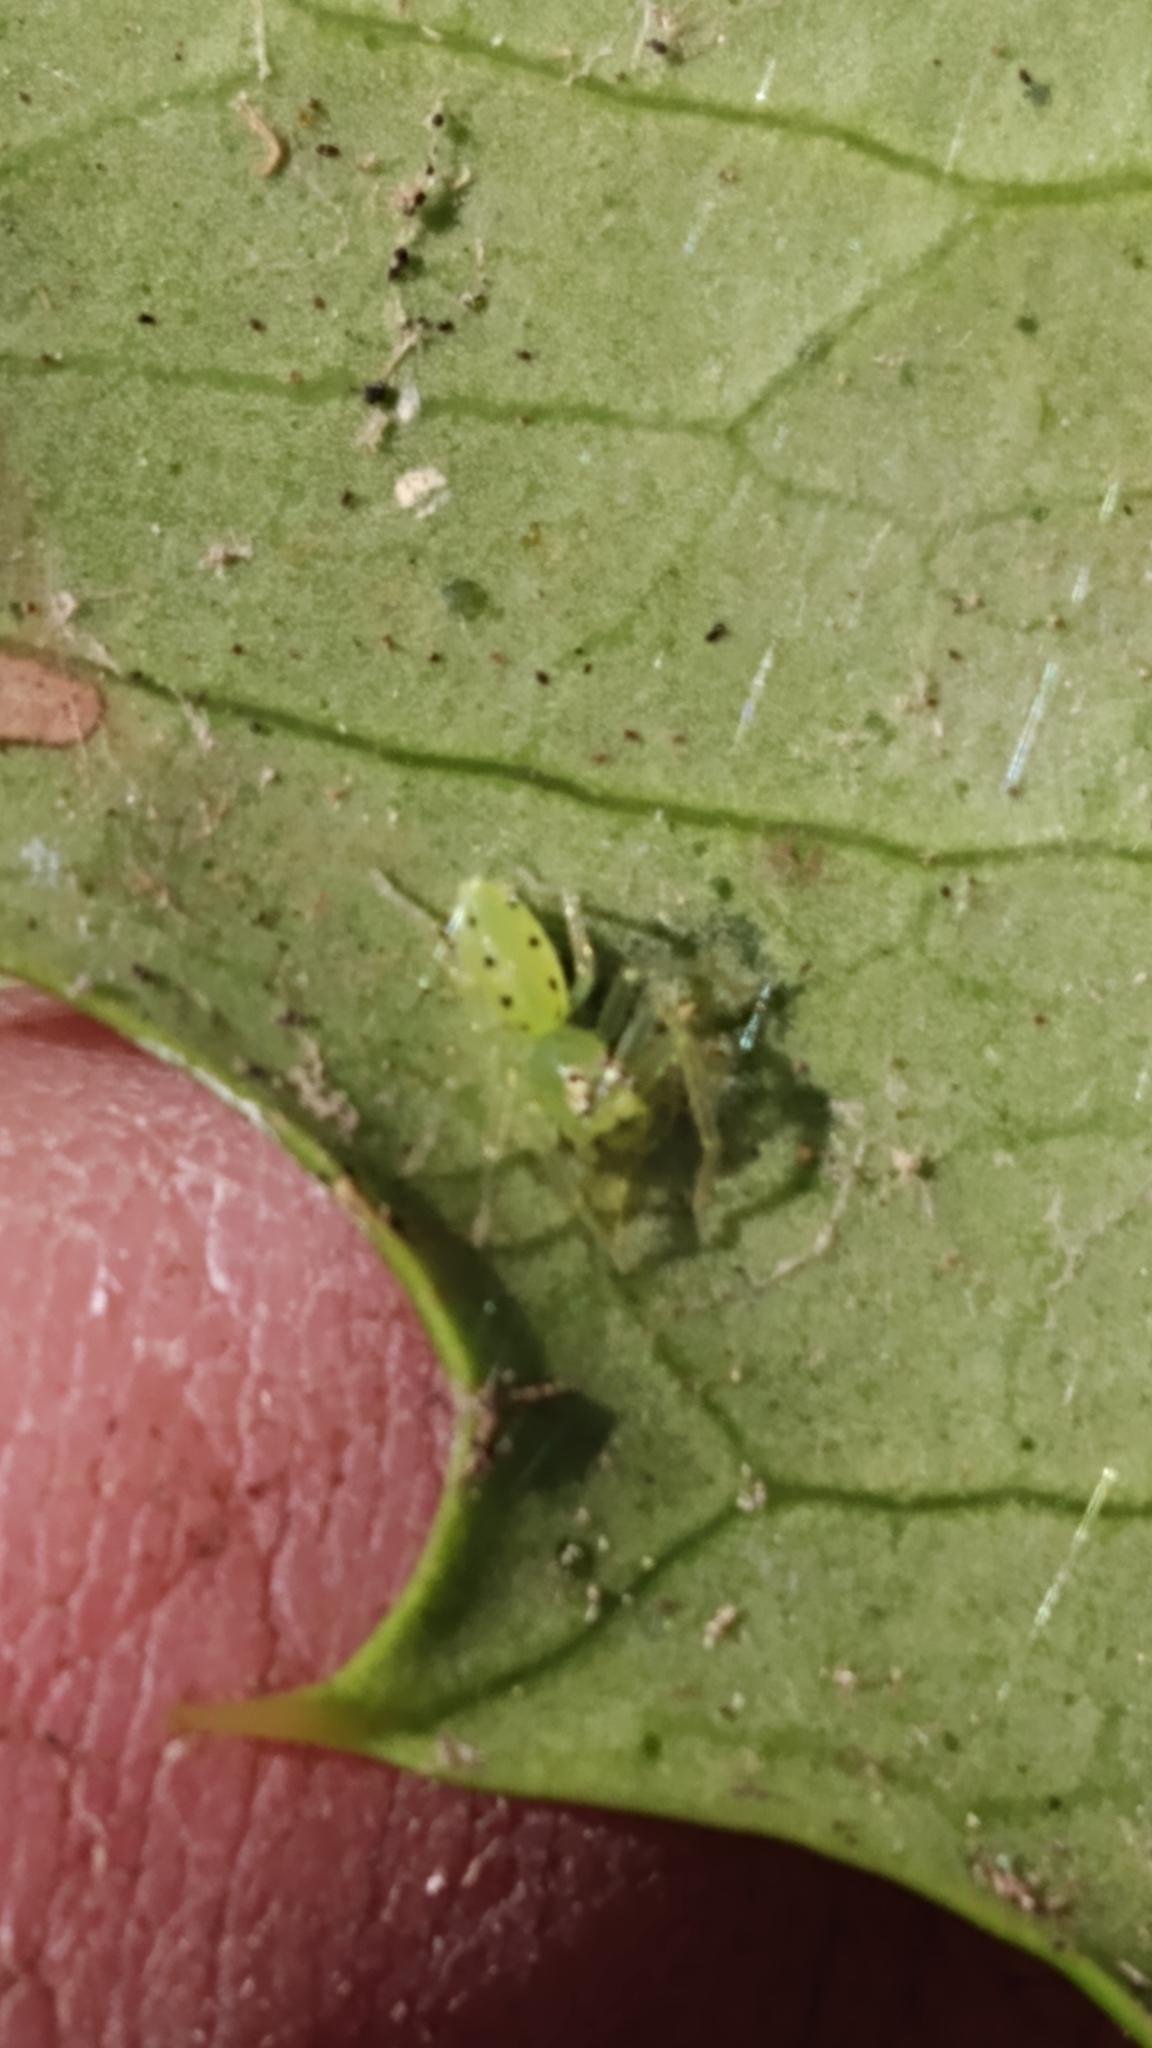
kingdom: Animalia
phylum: Arthropoda
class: Arachnida
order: Araneae
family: Salticidae
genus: Lyssomanes
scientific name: Lyssomanes viridis
